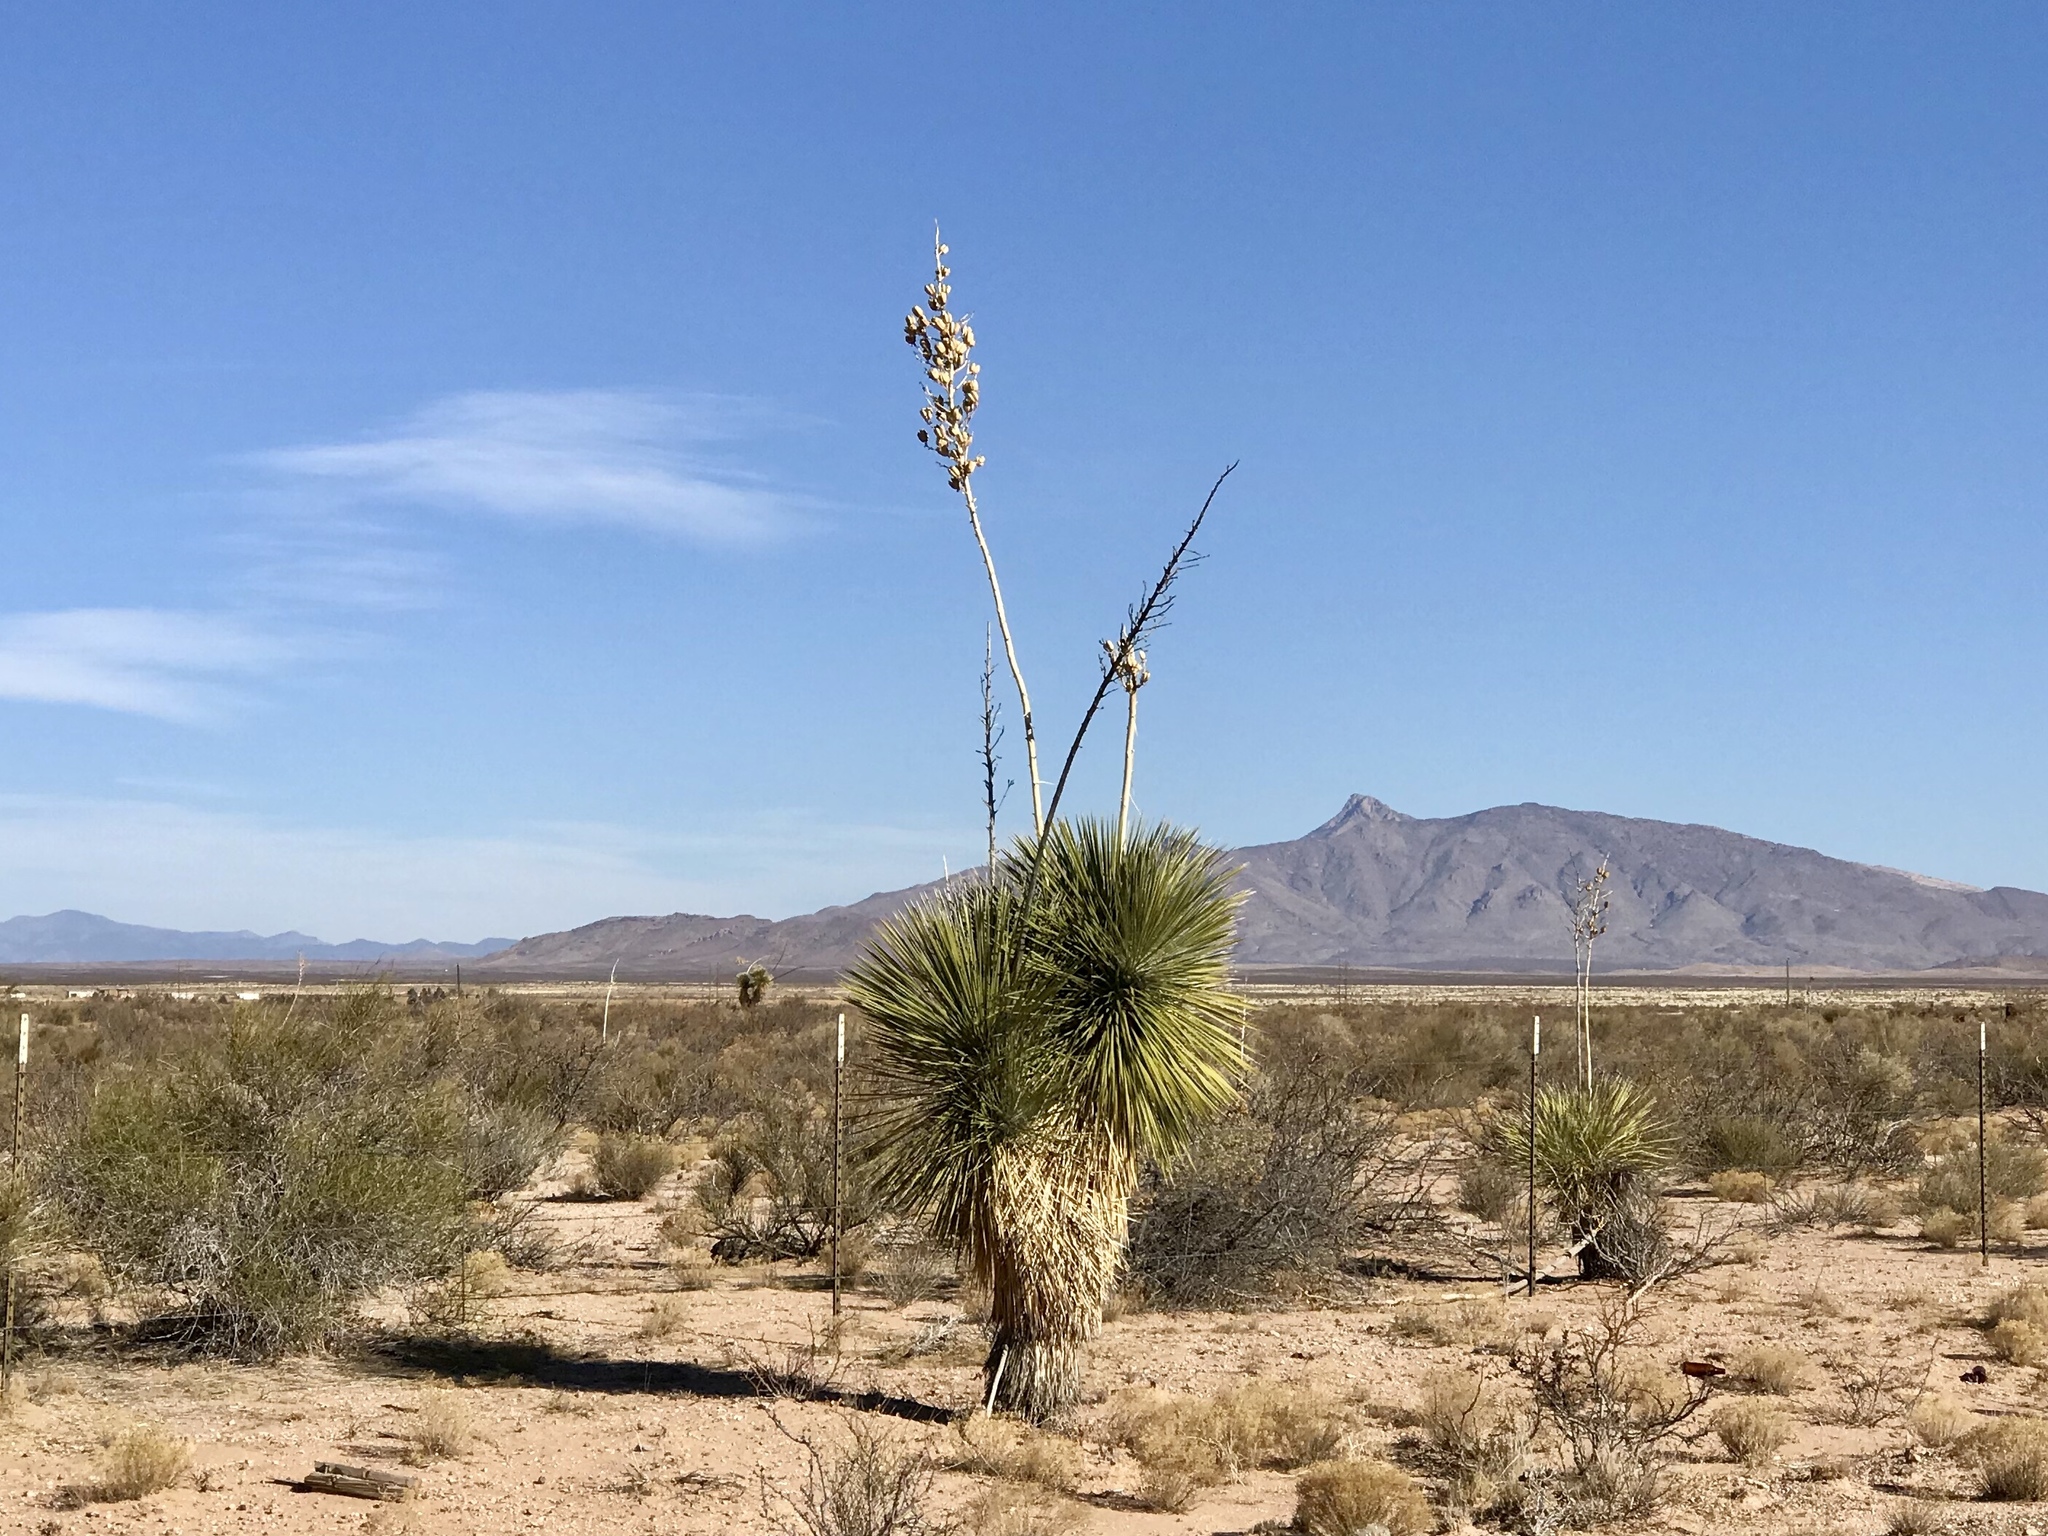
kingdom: Plantae
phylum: Tracheophyta
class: Liliopsida
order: Asparagales
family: Asparagaceae
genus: Yucca
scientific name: Yucca elata
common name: Palmella
